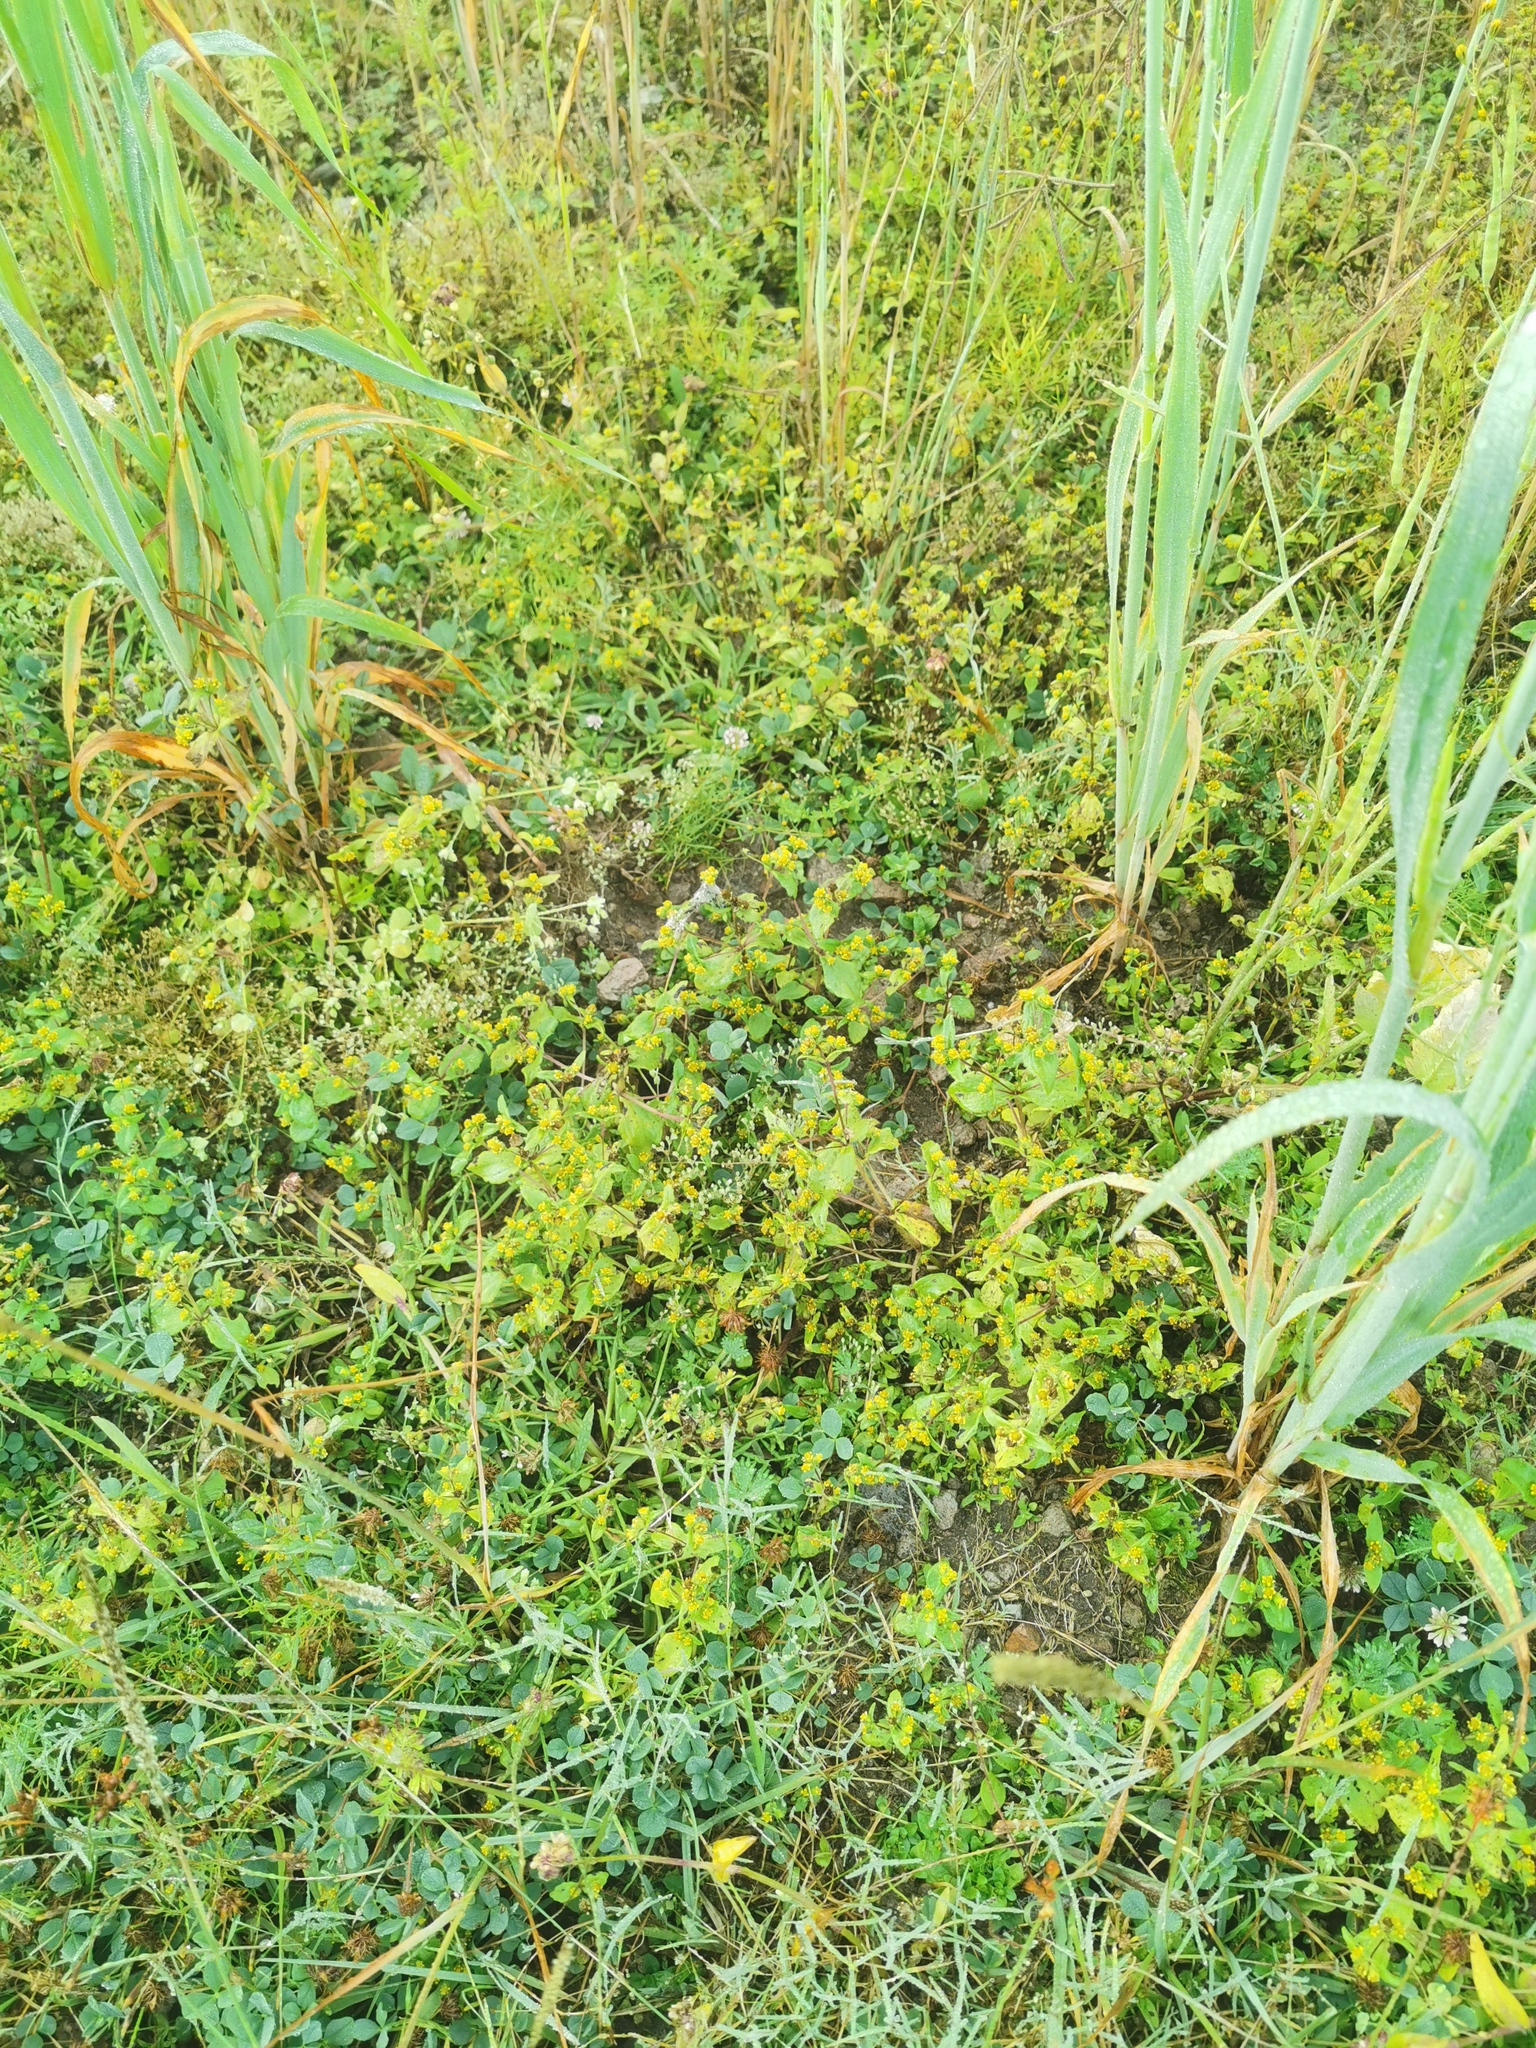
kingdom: Plantae
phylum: Tracheophyta
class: Magnoliopsida
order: Asterales
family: Asteraceae
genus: Jaegeria
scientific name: Jaegeria hirta
